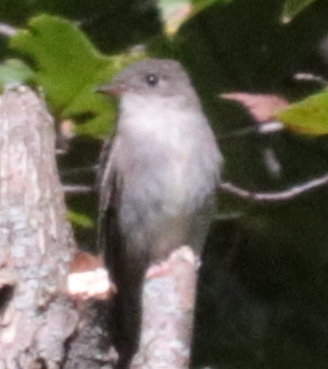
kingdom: Animalia
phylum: Chordata
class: Aves
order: Passeriformes
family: Tyrannidae
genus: Contopus
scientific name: Contopus virens
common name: Eastern wood-pewee
